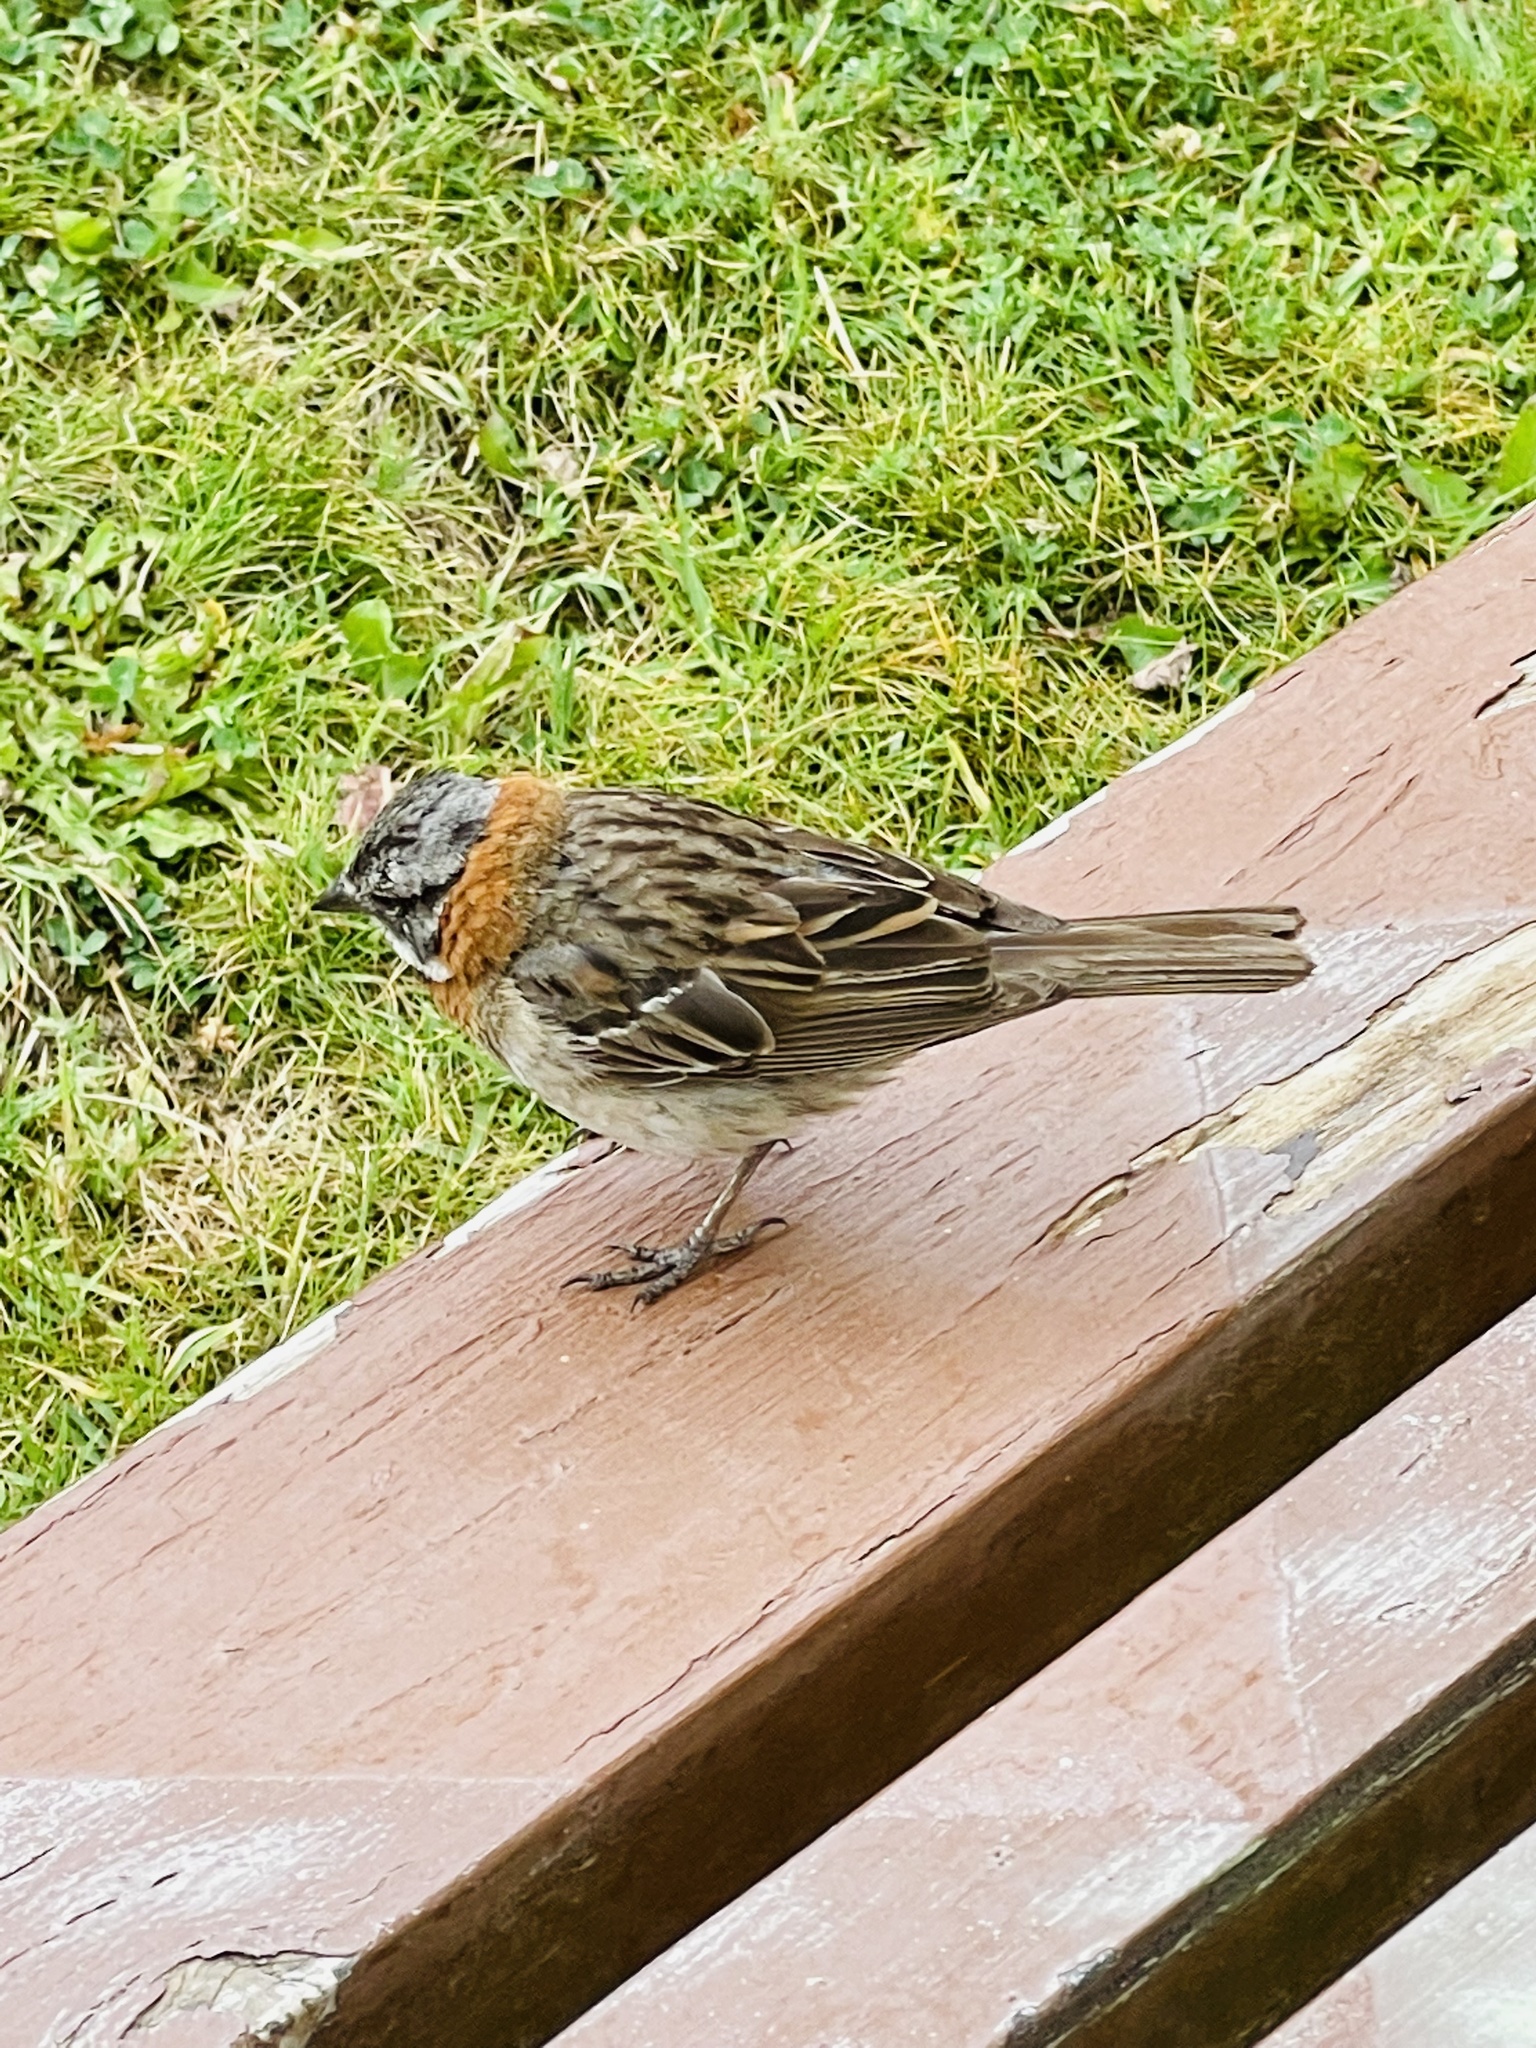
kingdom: Animalia
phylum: Chordata
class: Aves
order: Passeriformes
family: Passerellidae
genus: Zonotrichia
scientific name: Zonotrichia capensis
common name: Rufous-collared sparrow
